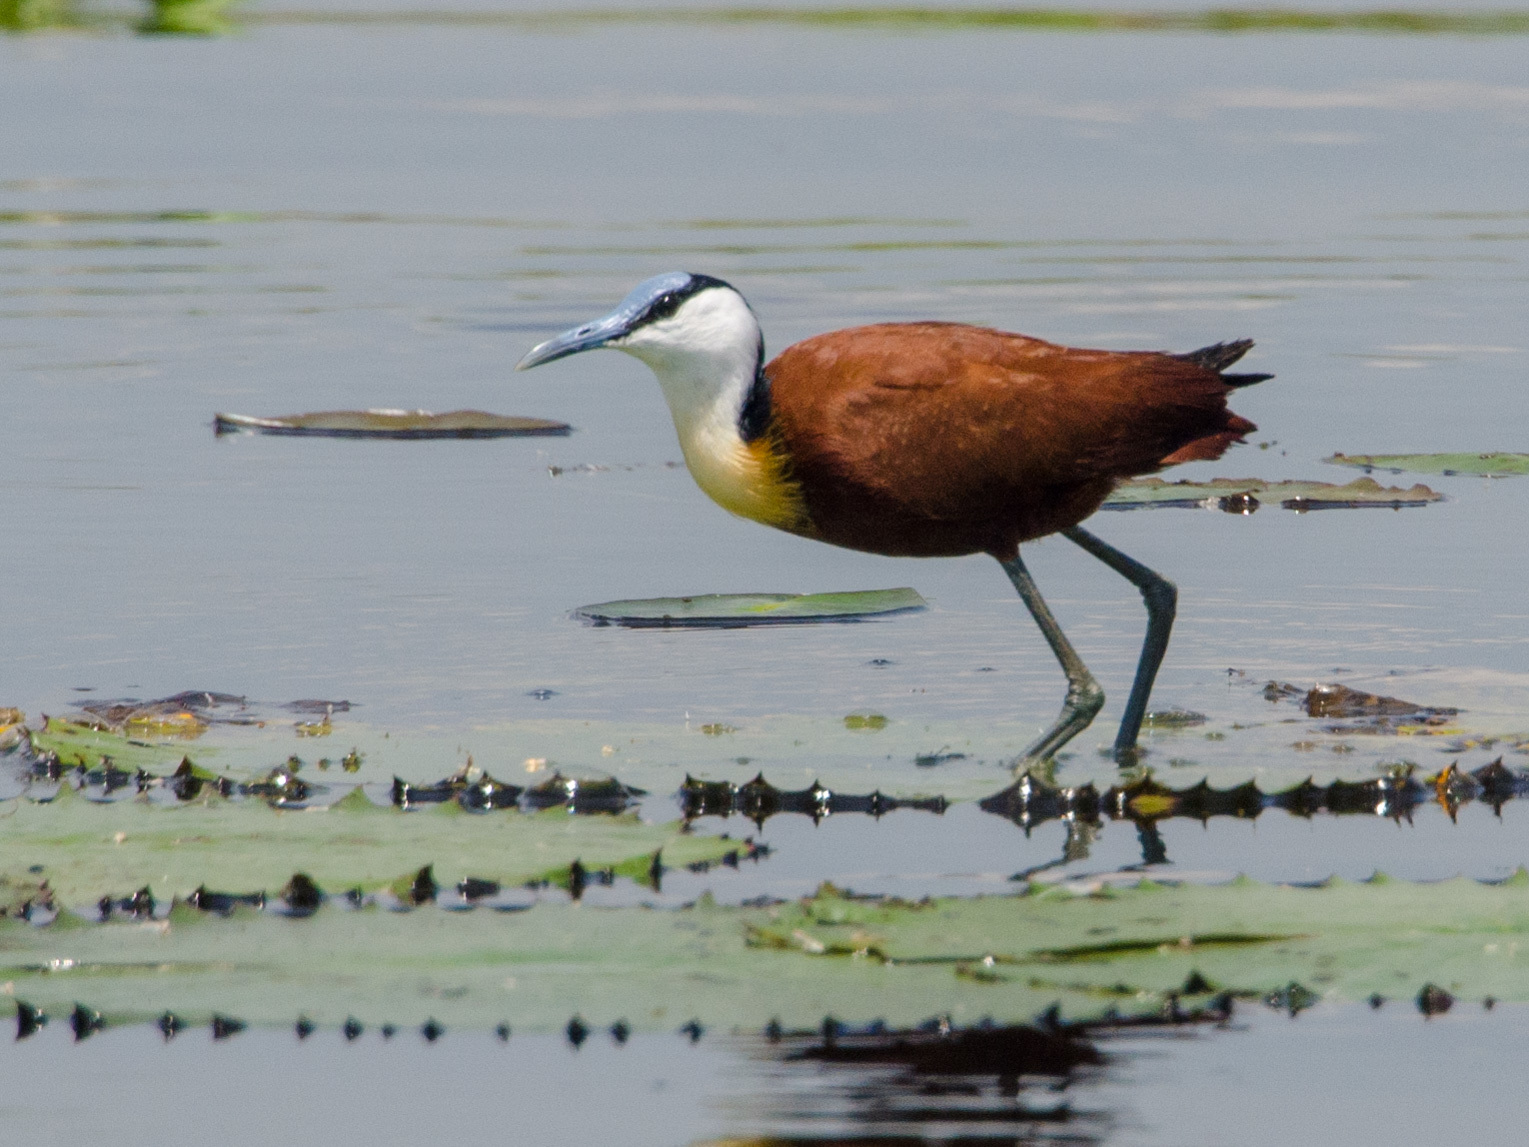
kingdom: Animalia
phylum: Chordata
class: Aves
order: Charadriiformes
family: Jacanidae
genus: Actophilornis
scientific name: Actophilornis africanus
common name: African jacana
